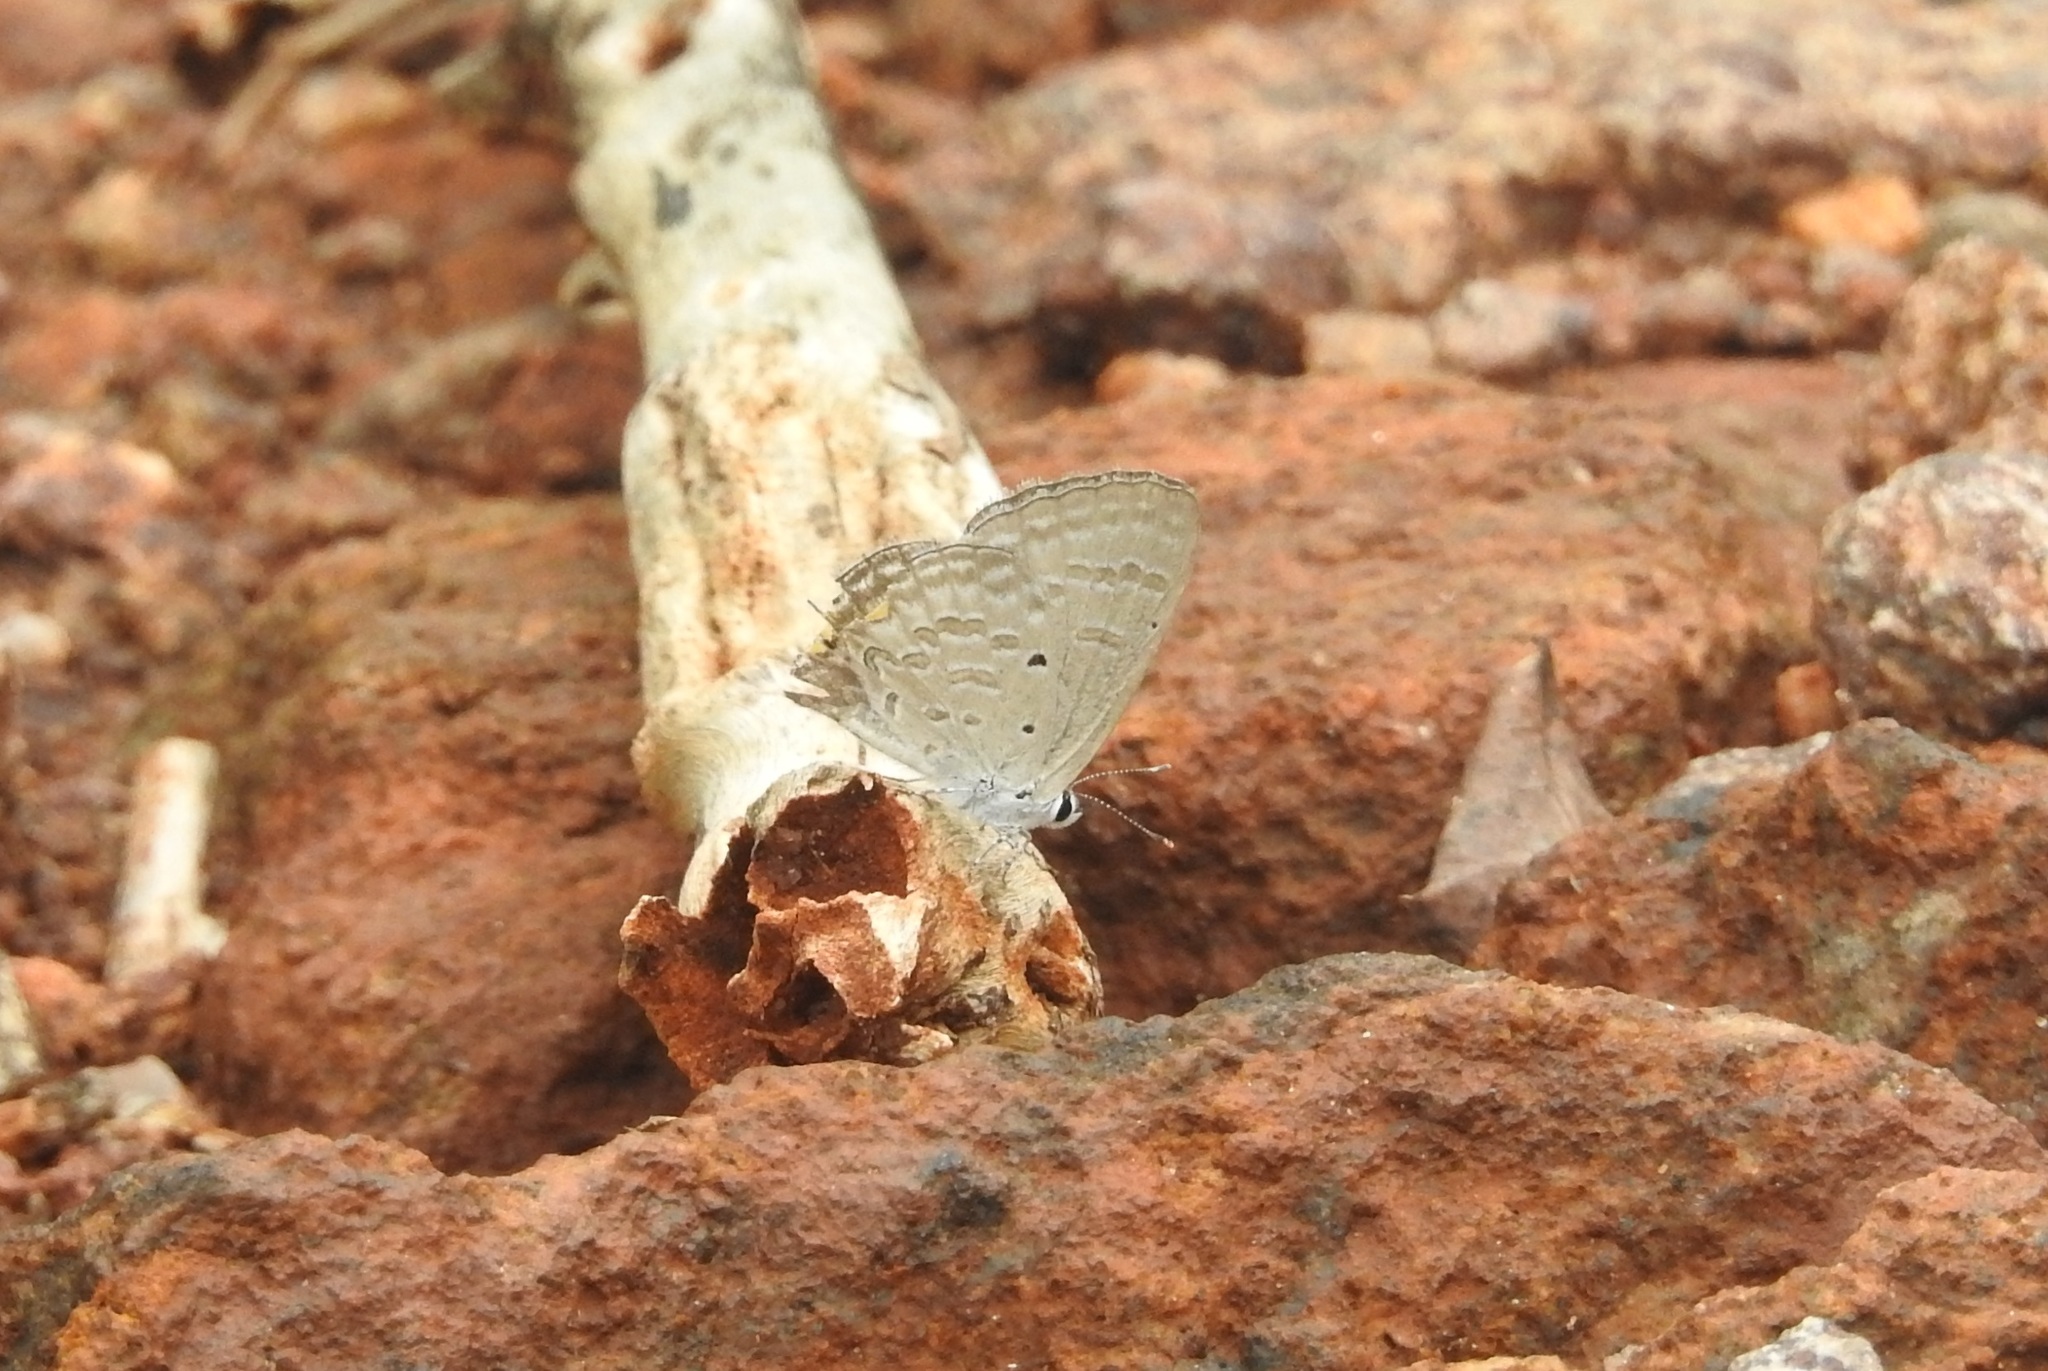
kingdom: Animalia
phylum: Arthropoda
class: Insecta
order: Lepidoptera
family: Lycaenidae
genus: Catochrysops
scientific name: Catochrysops strabo
